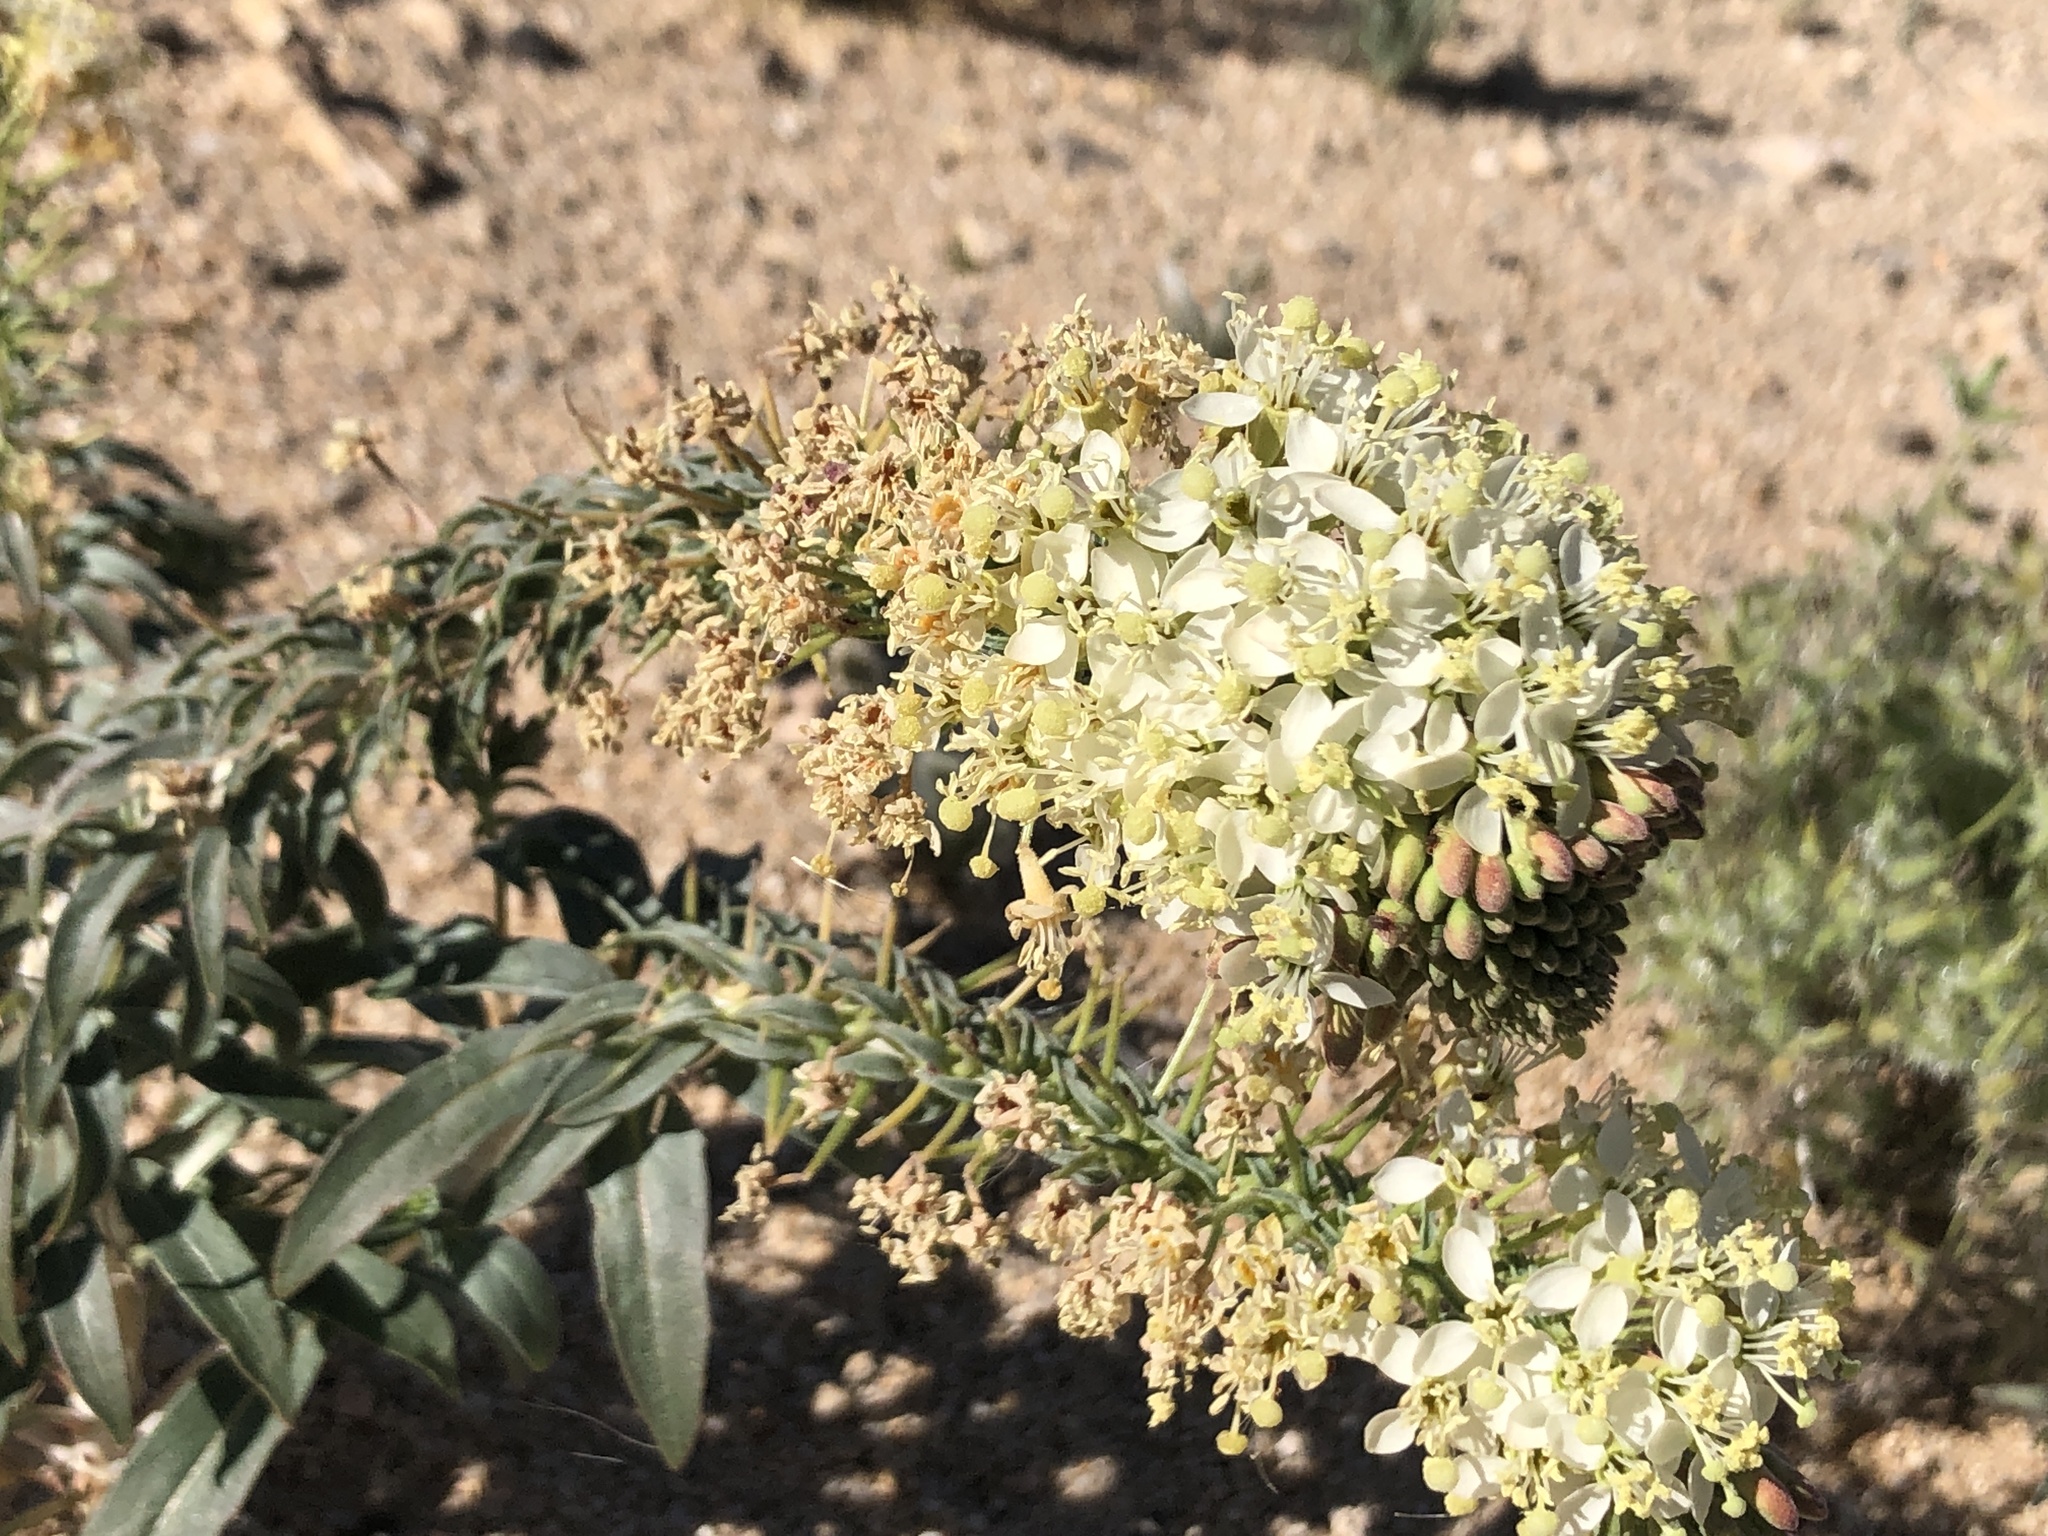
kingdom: Plantae
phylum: Tracheophyta
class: Magnoliopsida
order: Myrtales
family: Onagraceae
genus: Eremothera
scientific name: Eremothera boothii
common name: Booth's evening primrose
